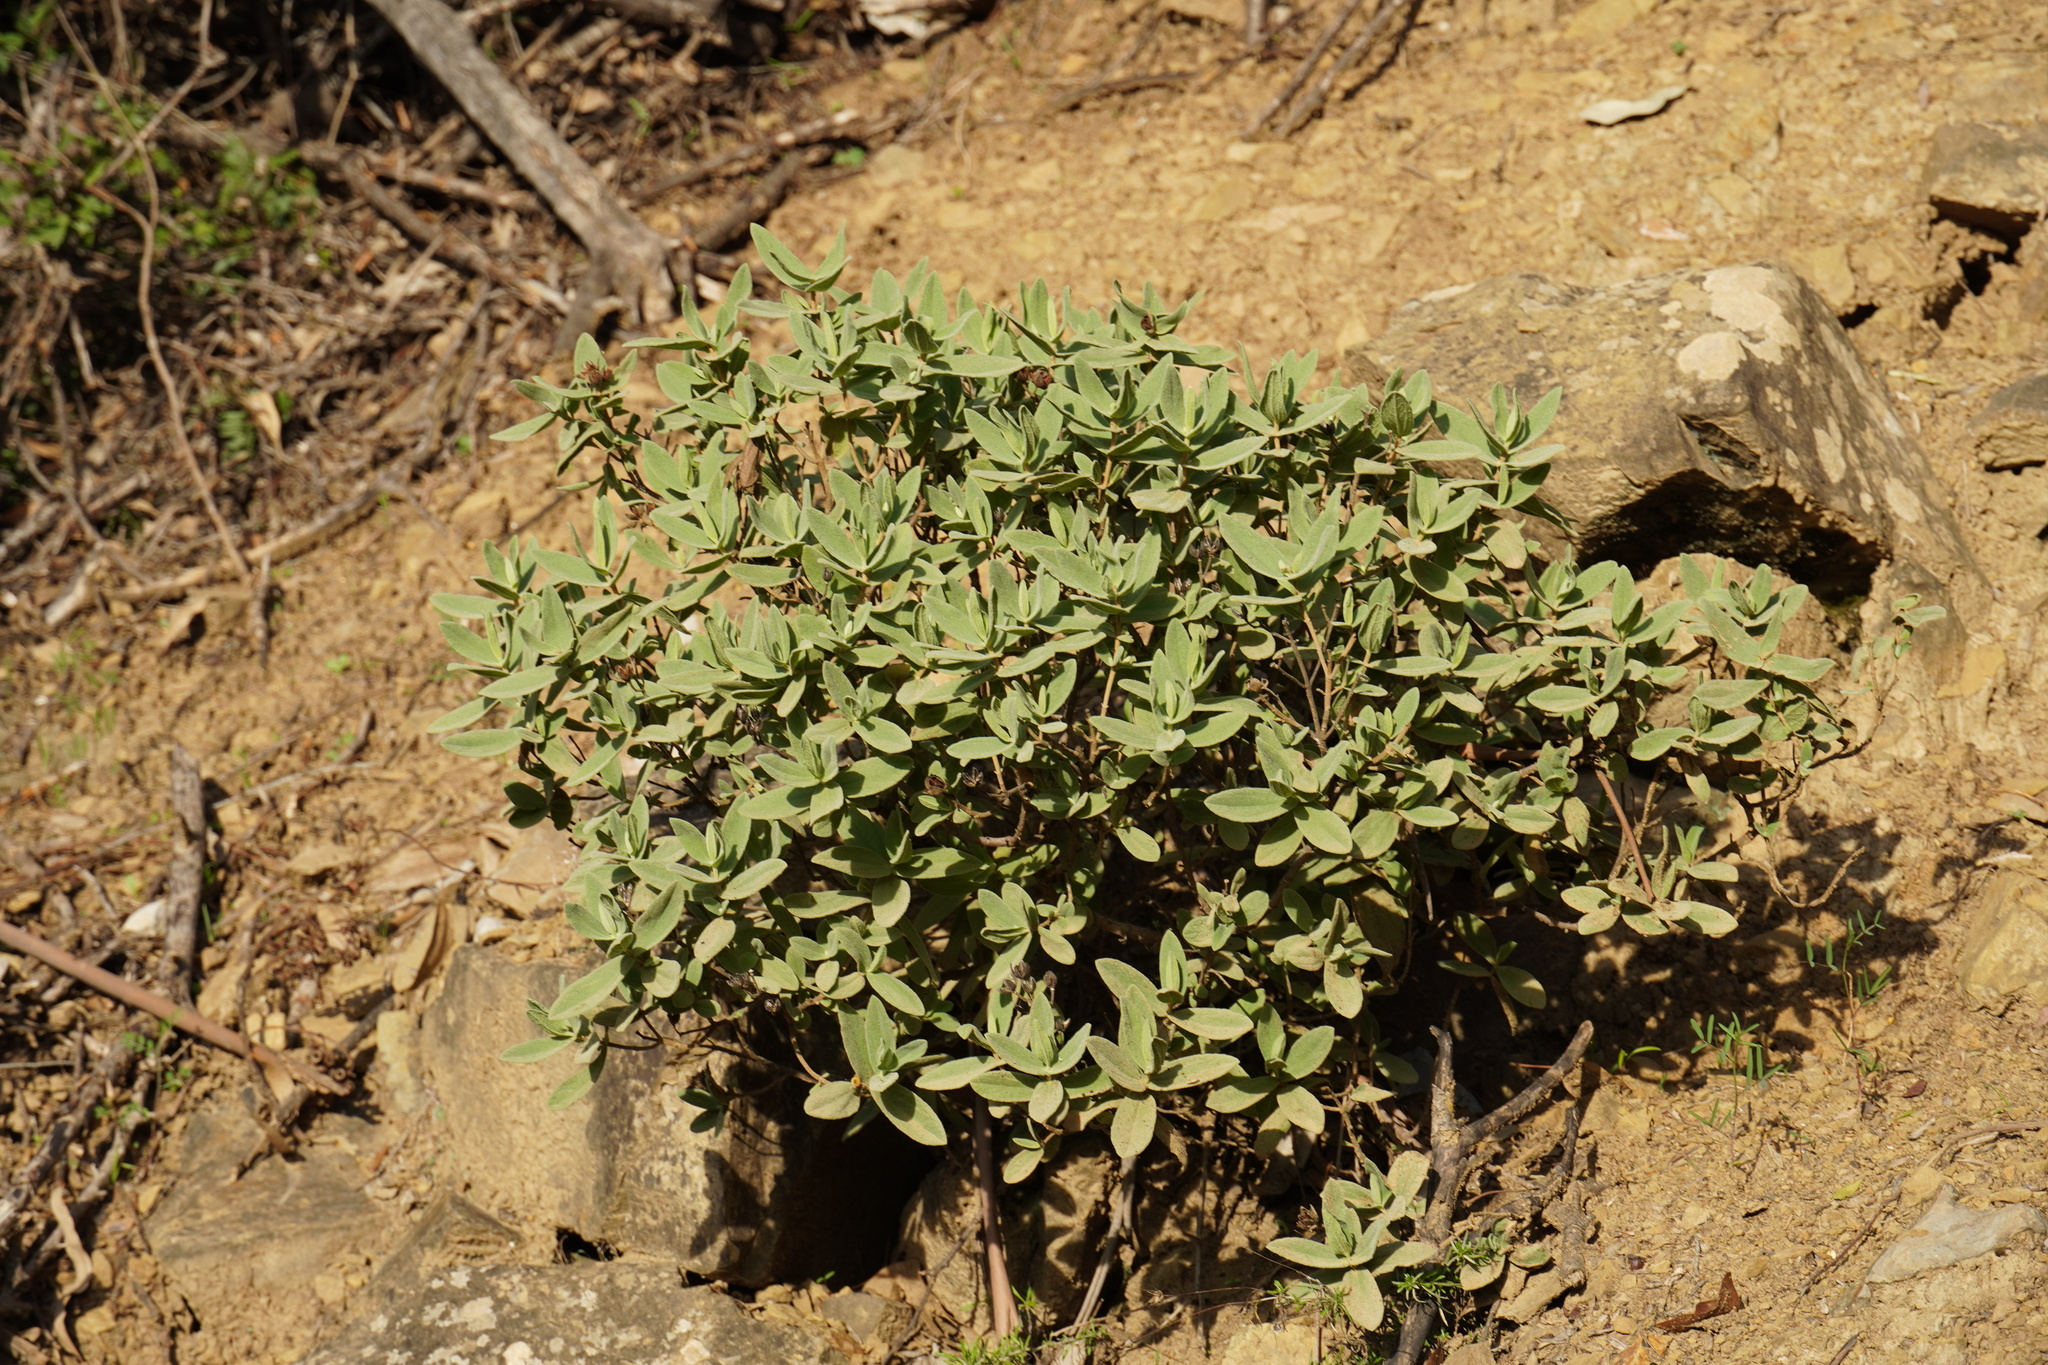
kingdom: Plantae
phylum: Tracheophyta
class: Magnoliopsida
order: Malvales
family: Cistaceae
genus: Cistus
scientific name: Cistus albidus
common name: White-leaf rock-rose
